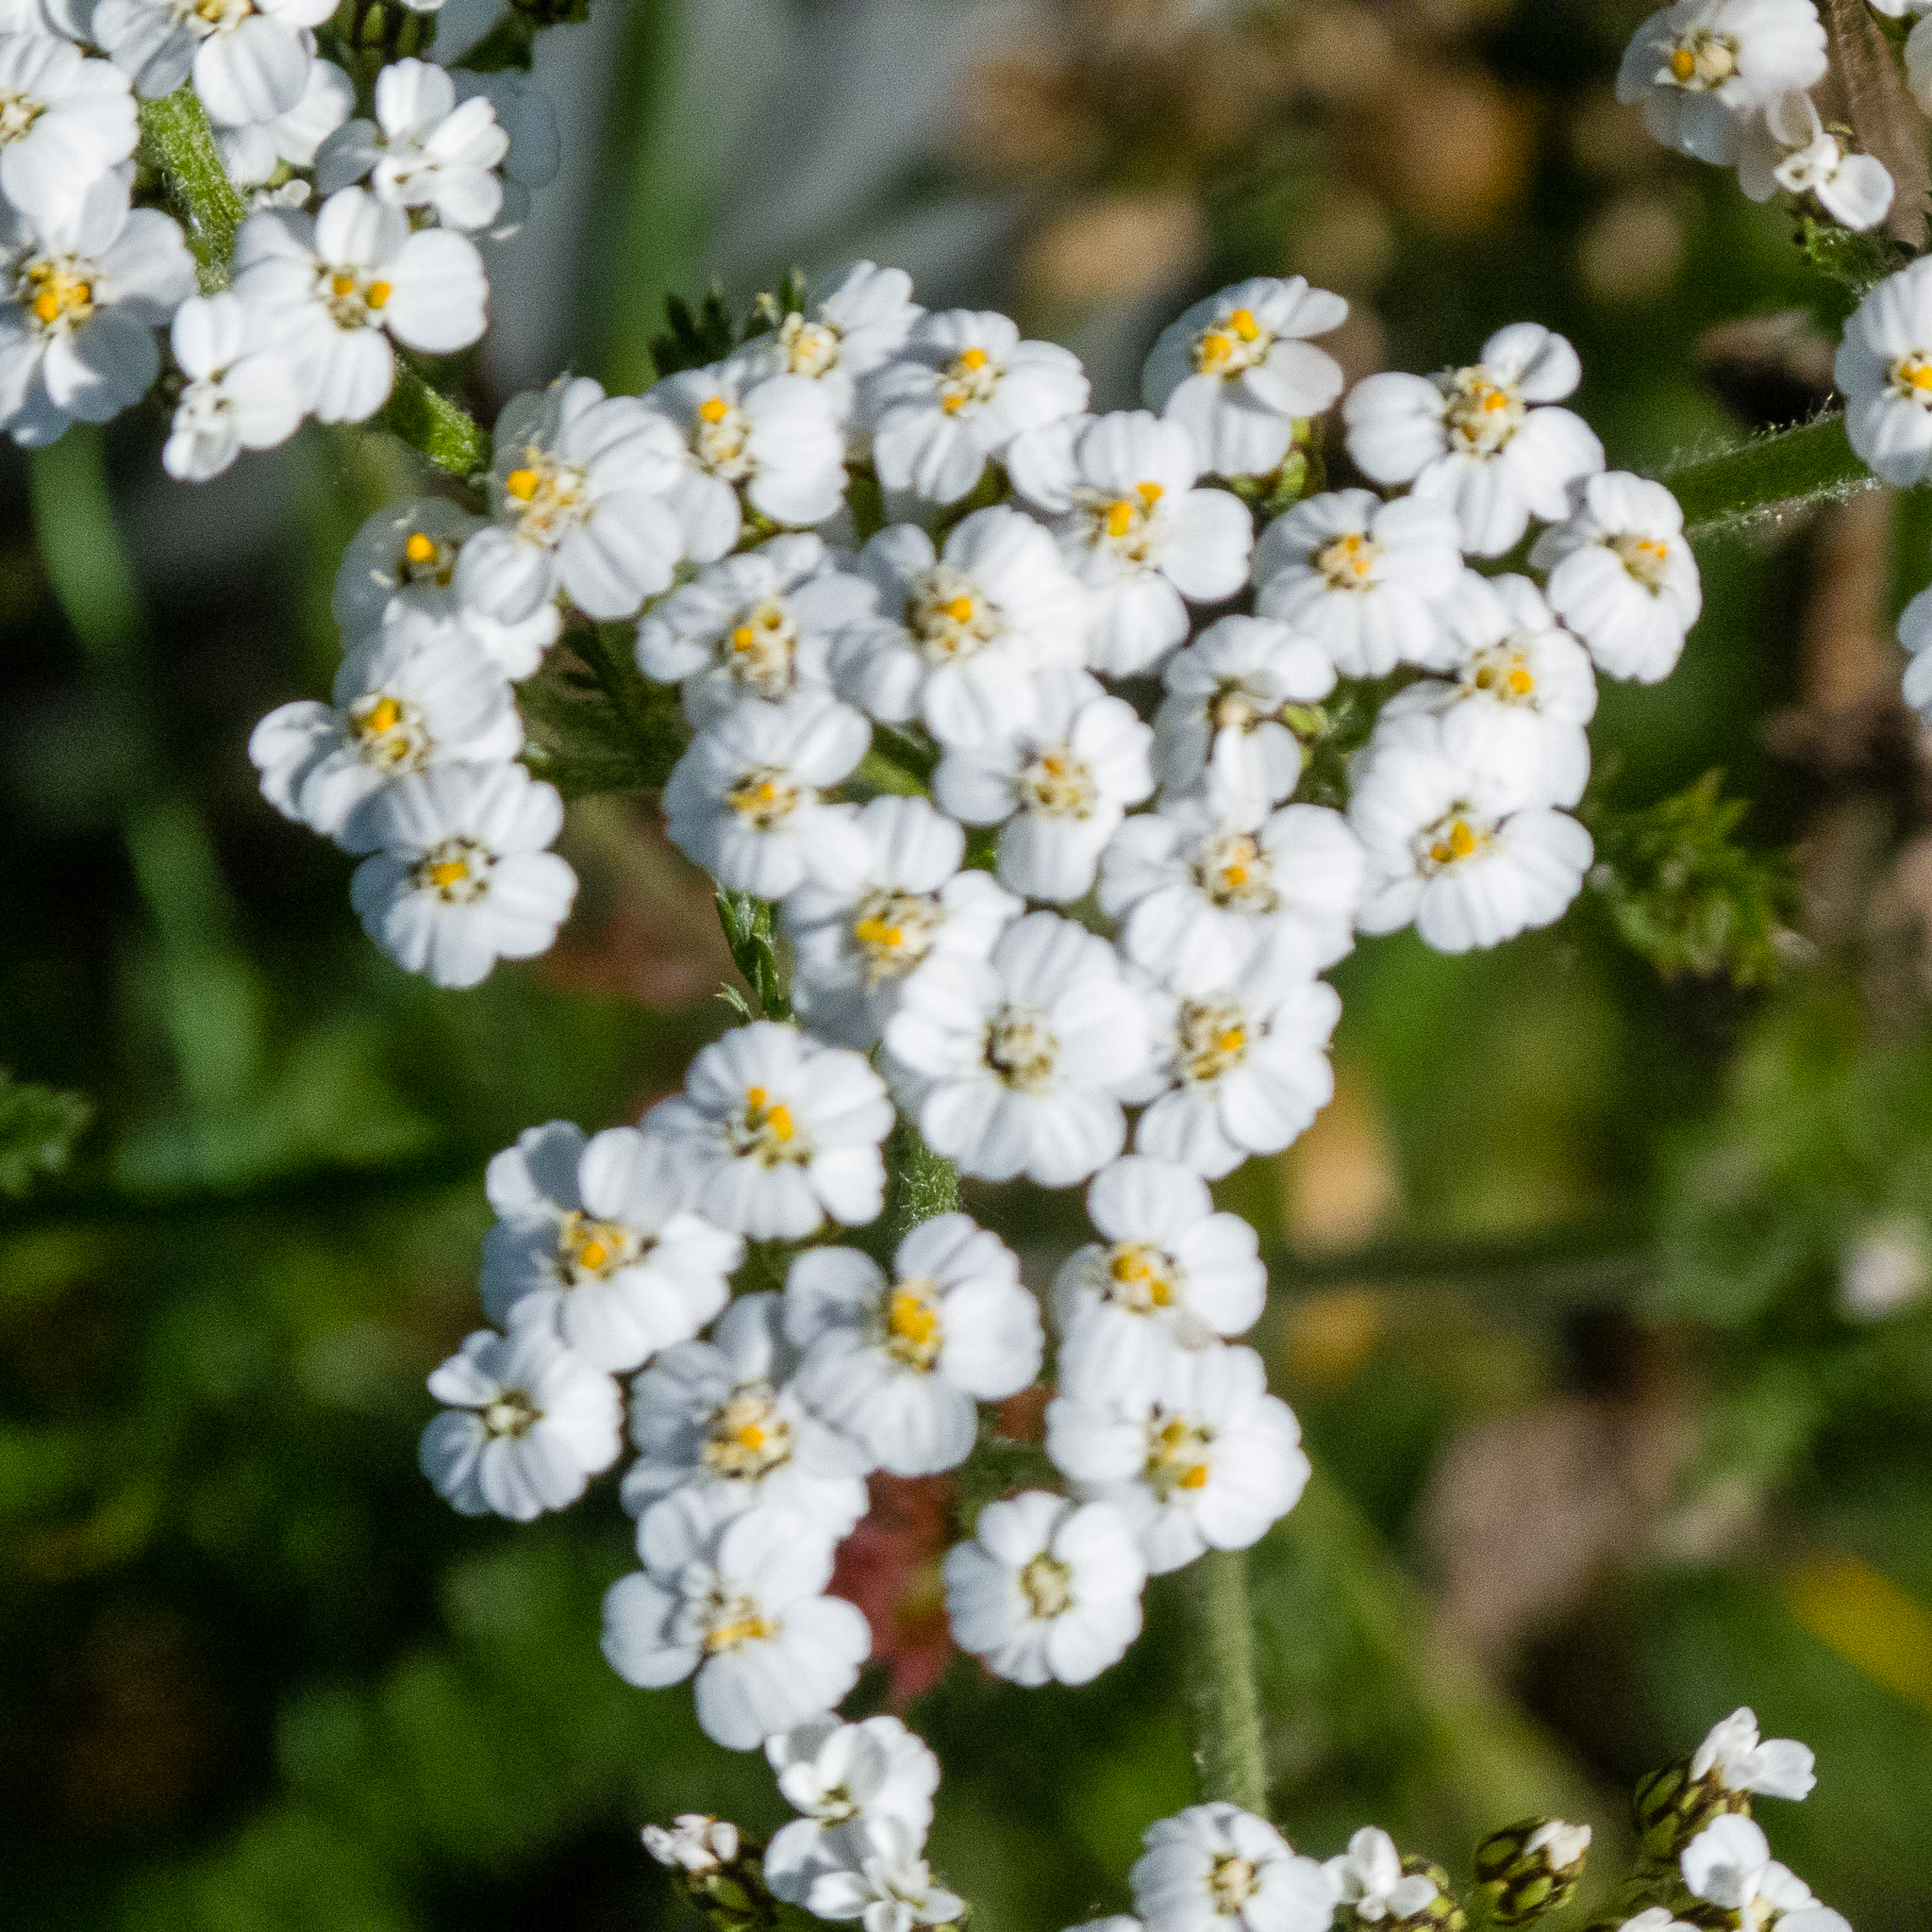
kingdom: Plantae
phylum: Tracheophyta
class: Magnoliopsida
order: Asterales
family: Asteraceae
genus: Achillea
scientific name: Achillea millefolium
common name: Yarrow
